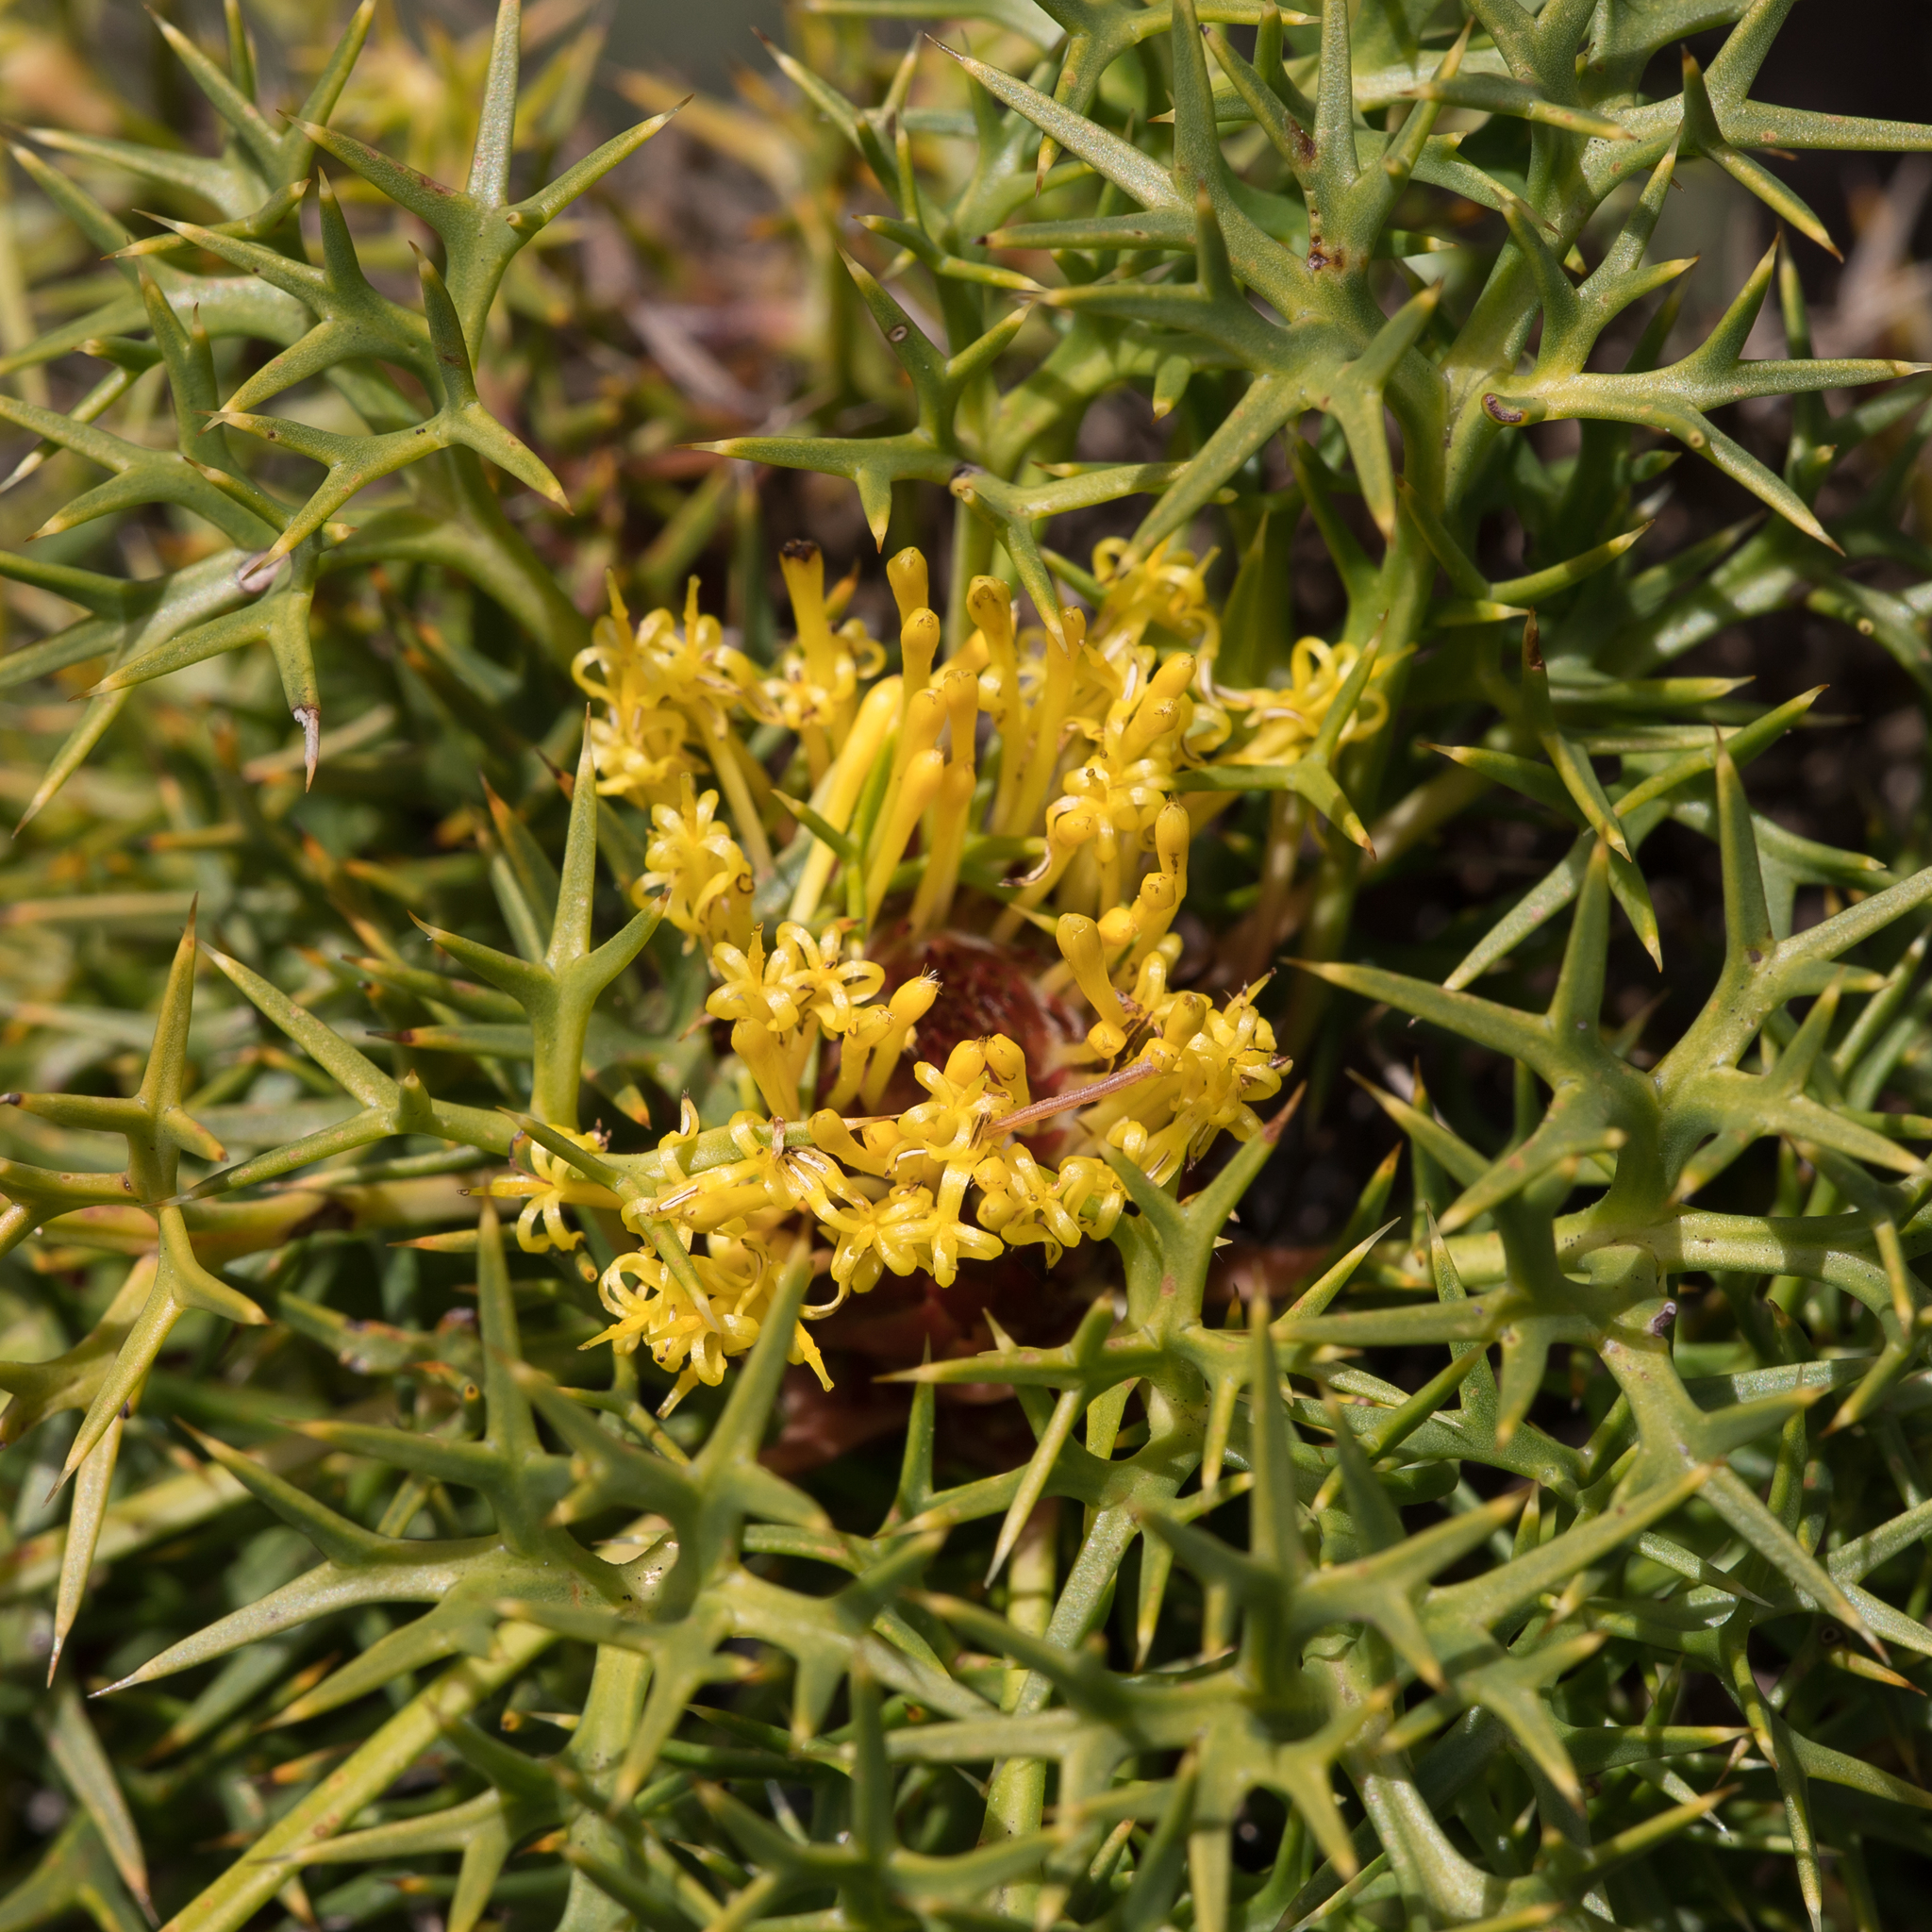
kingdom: Plantae
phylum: Tracheophyta
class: Magnoliopsida
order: Proteales
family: Proteaceae
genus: Isopogon
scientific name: Isopogon ceratophyllus
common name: Horny cone-bush
